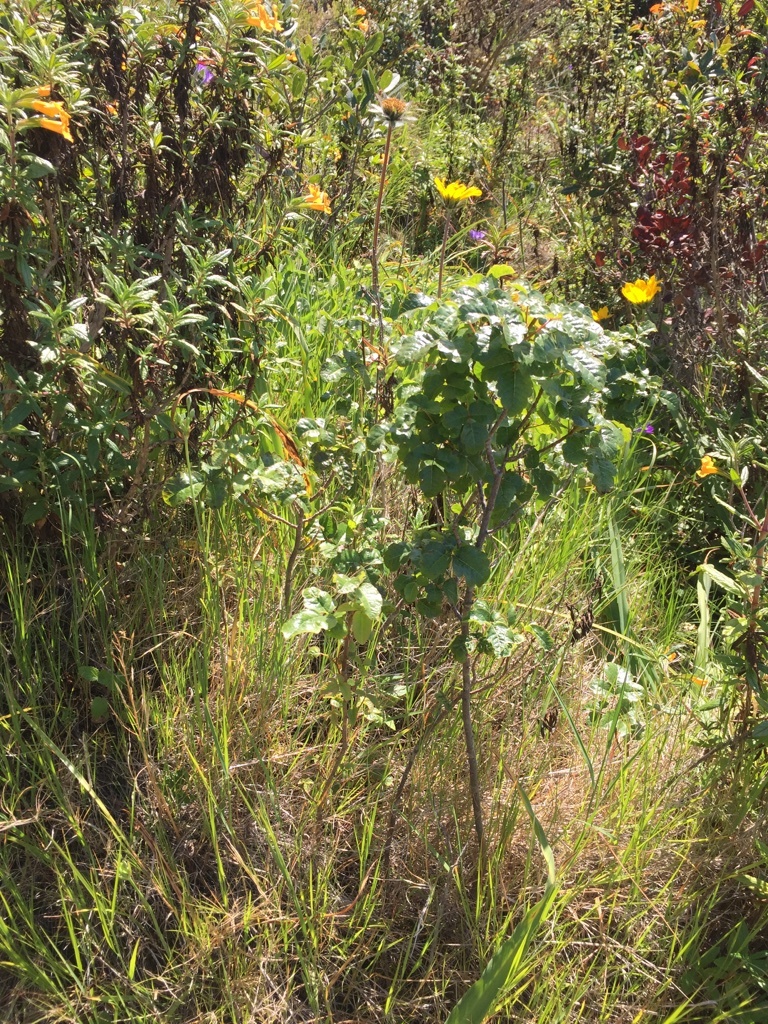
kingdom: Plantae
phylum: Tracheophyta
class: Magnoliopsida
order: Sapindales
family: Anacardiaceae
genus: Toxicodendron
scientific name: Toxicodendron diversilobum
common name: Pacific poison-oak
